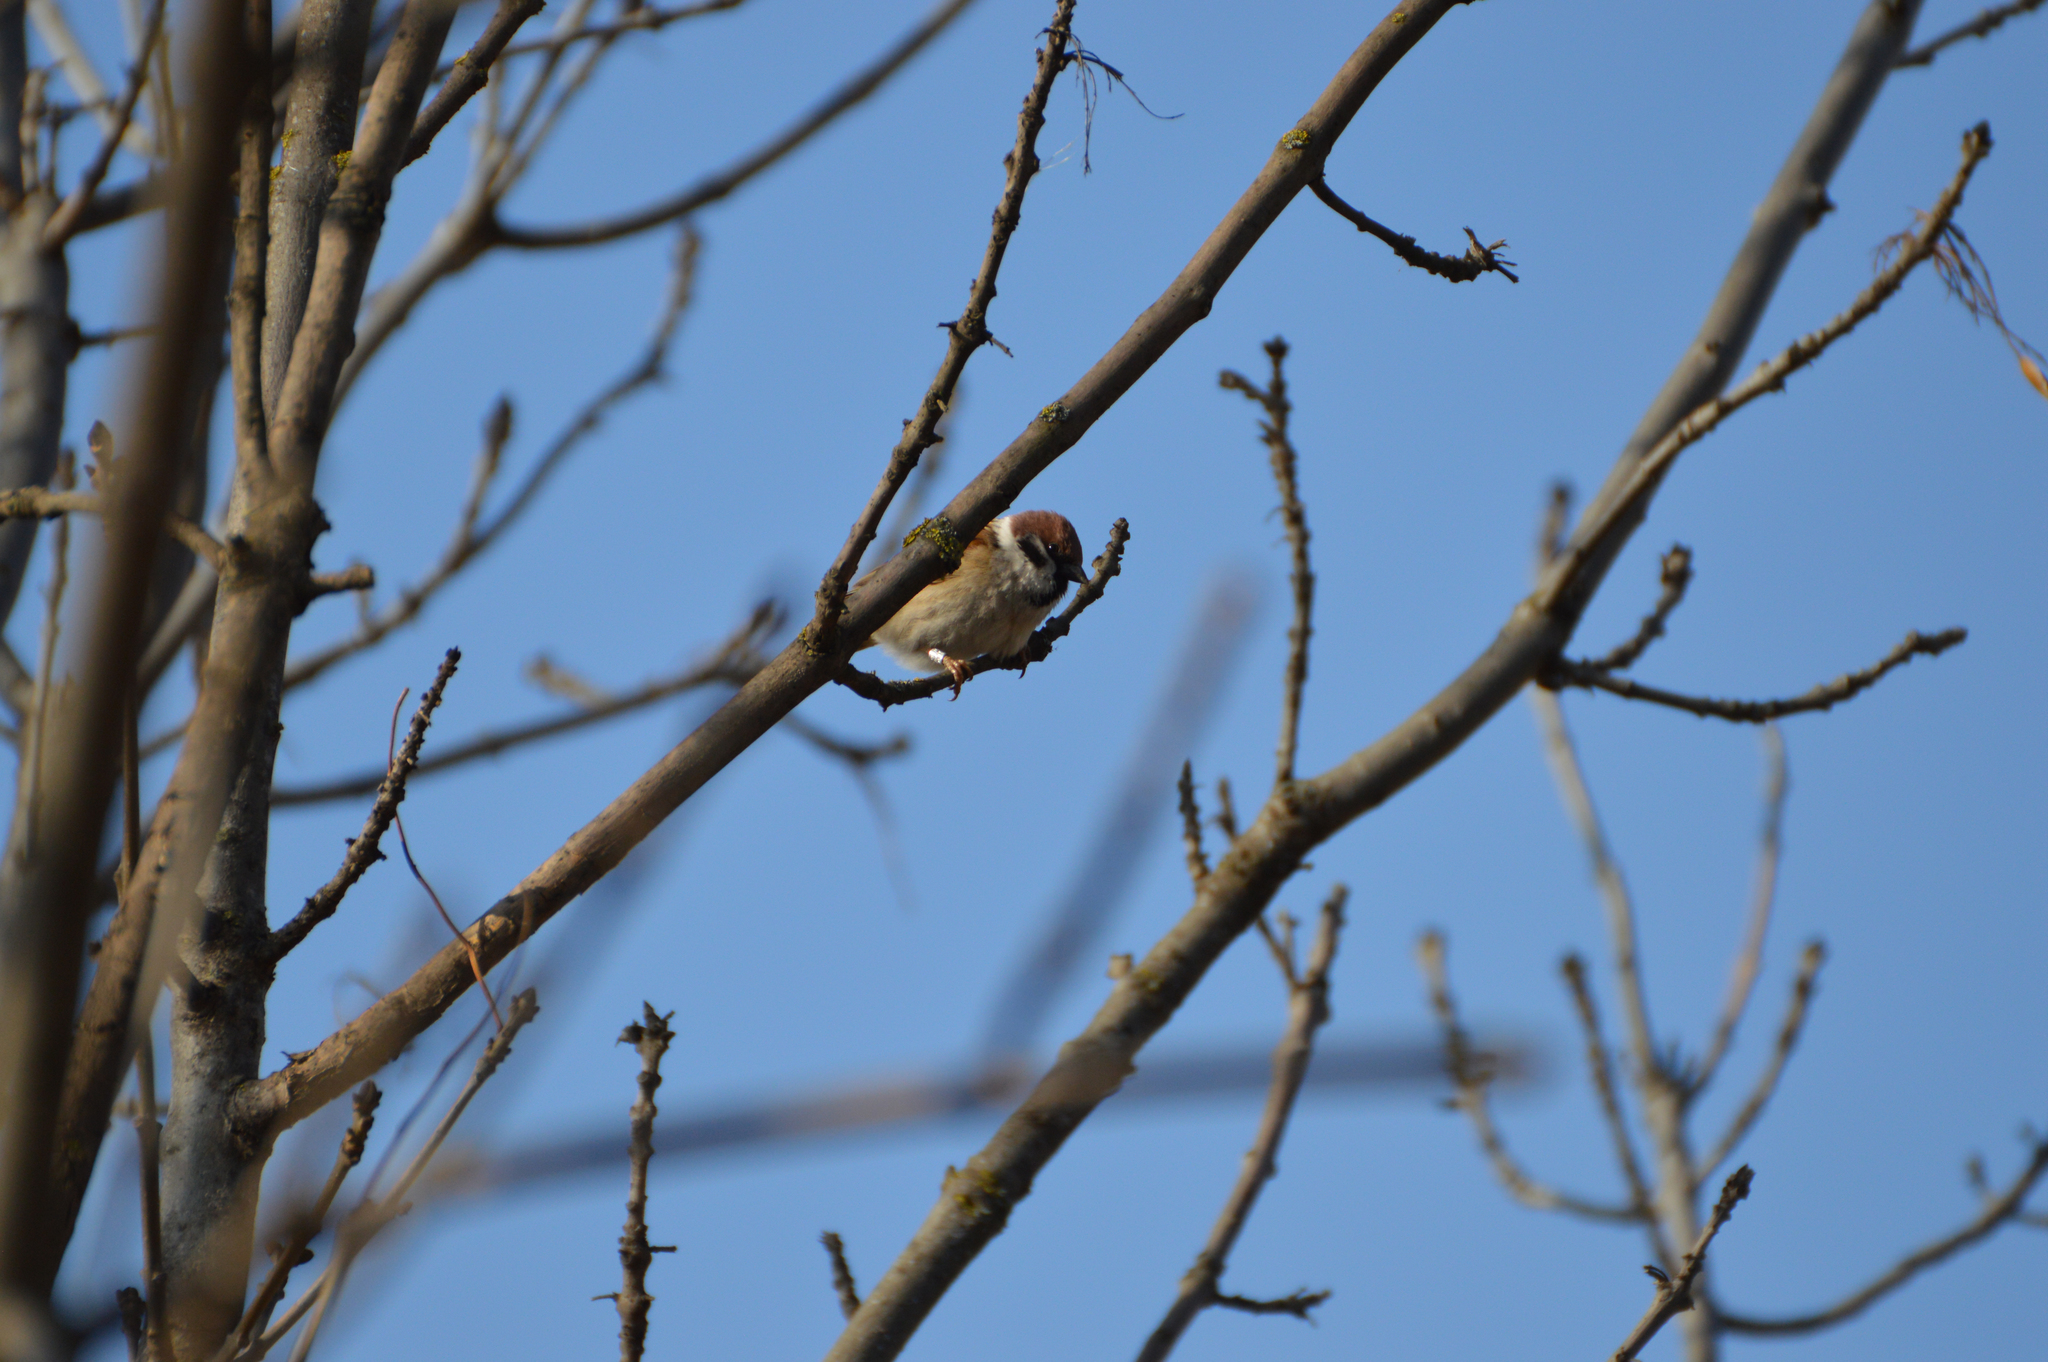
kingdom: Animalia
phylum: Chordata
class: Aves
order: Passeriformes
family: Passeridae
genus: Passer
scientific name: Passer montanus
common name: Eurasian tree sparrow
